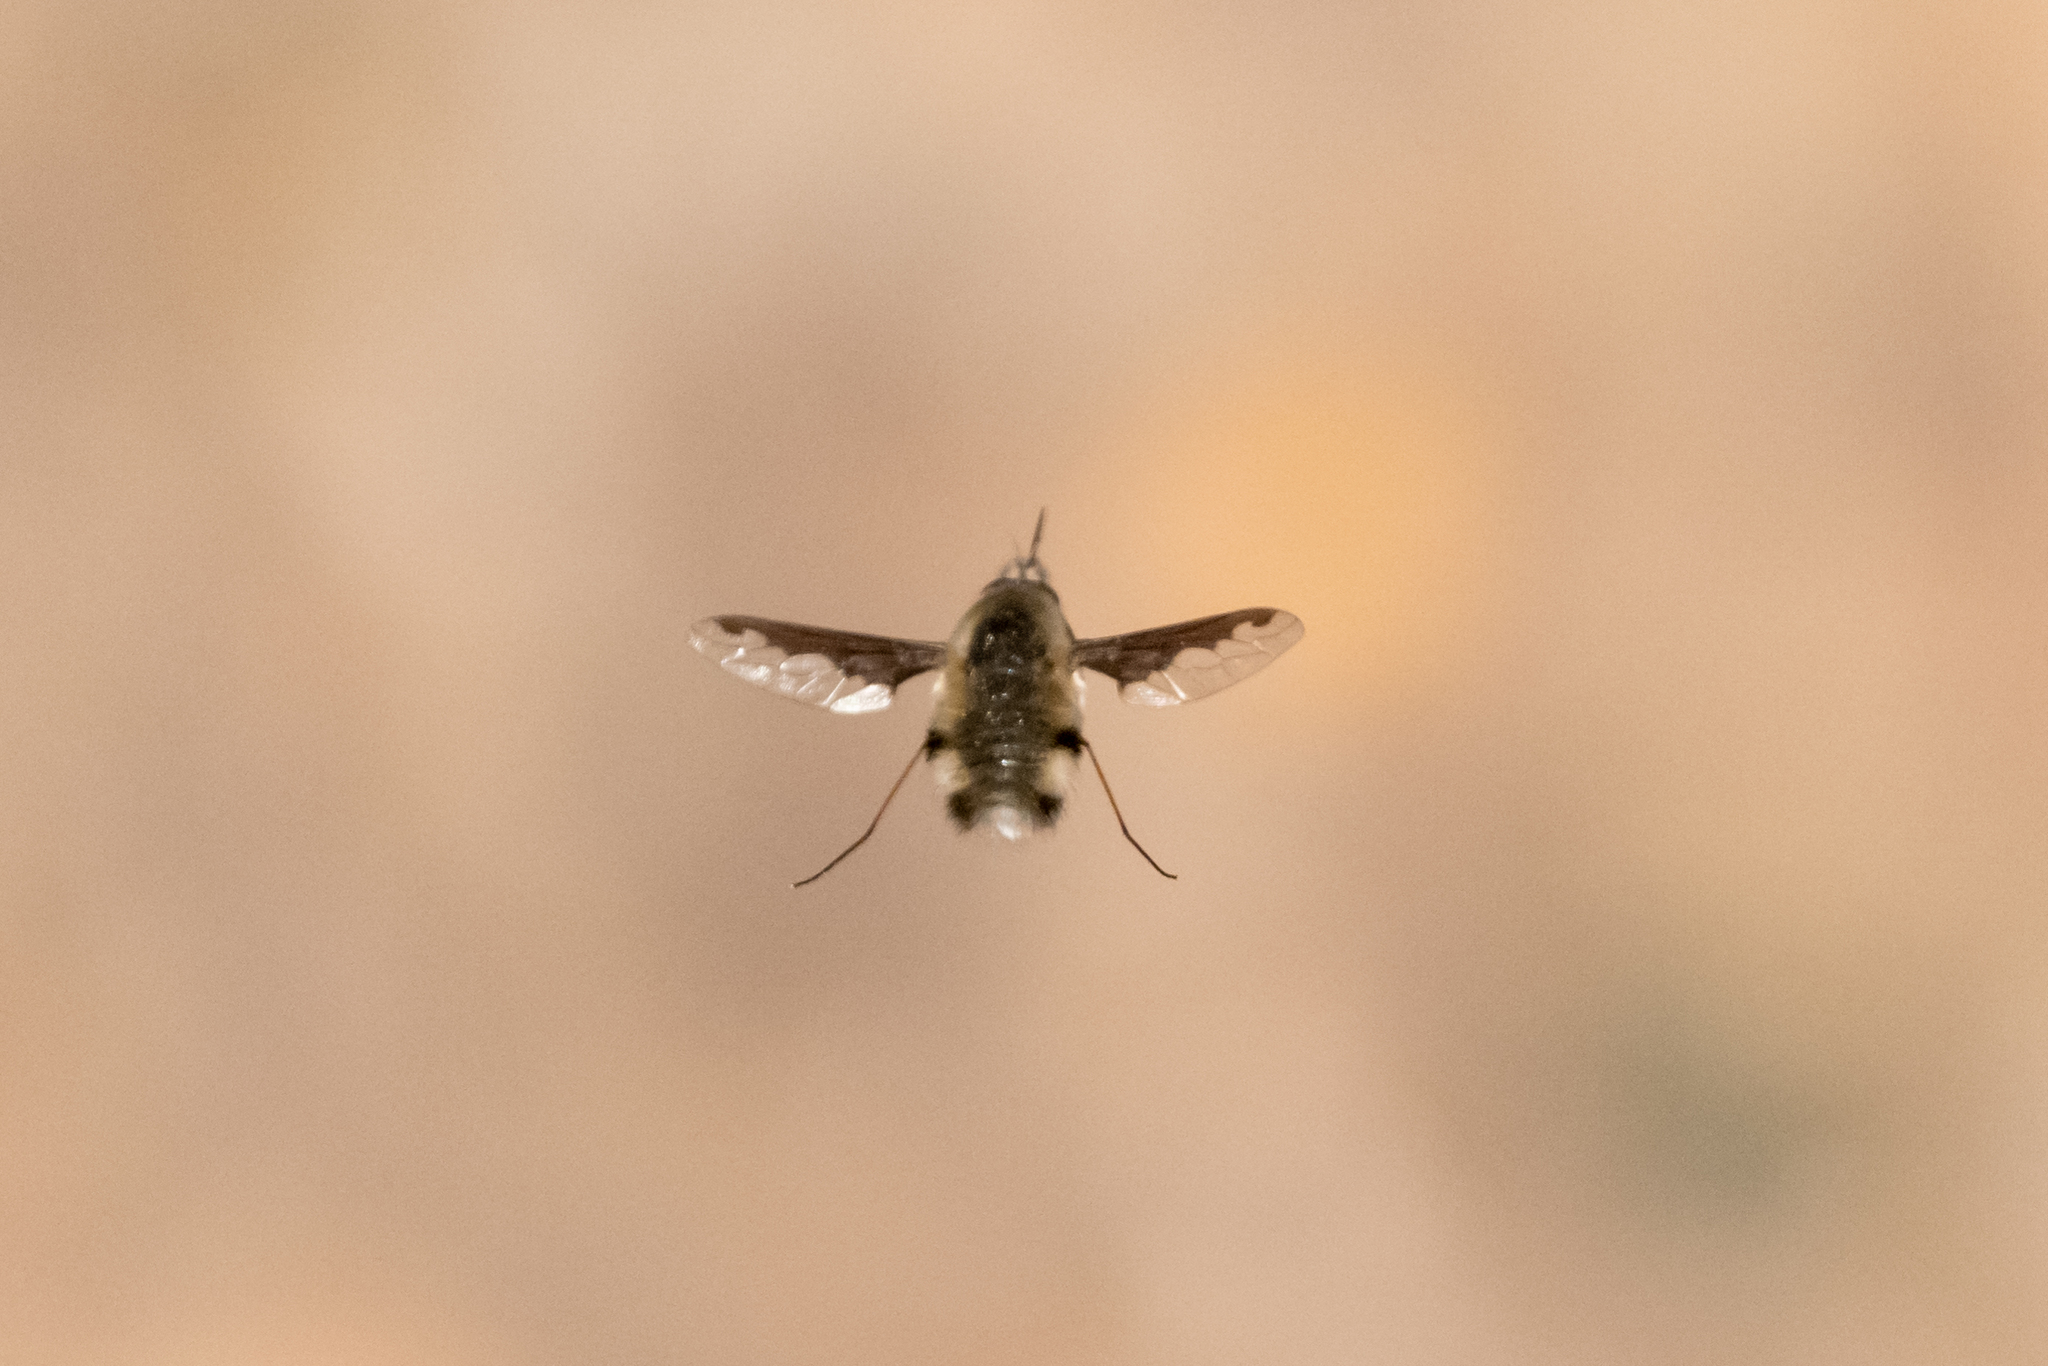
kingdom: Animalia
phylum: Arthropoda
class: Insecta
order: Diptera
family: Bombyliidae
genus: Bombylius
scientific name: Bombylius major
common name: Bee fly
